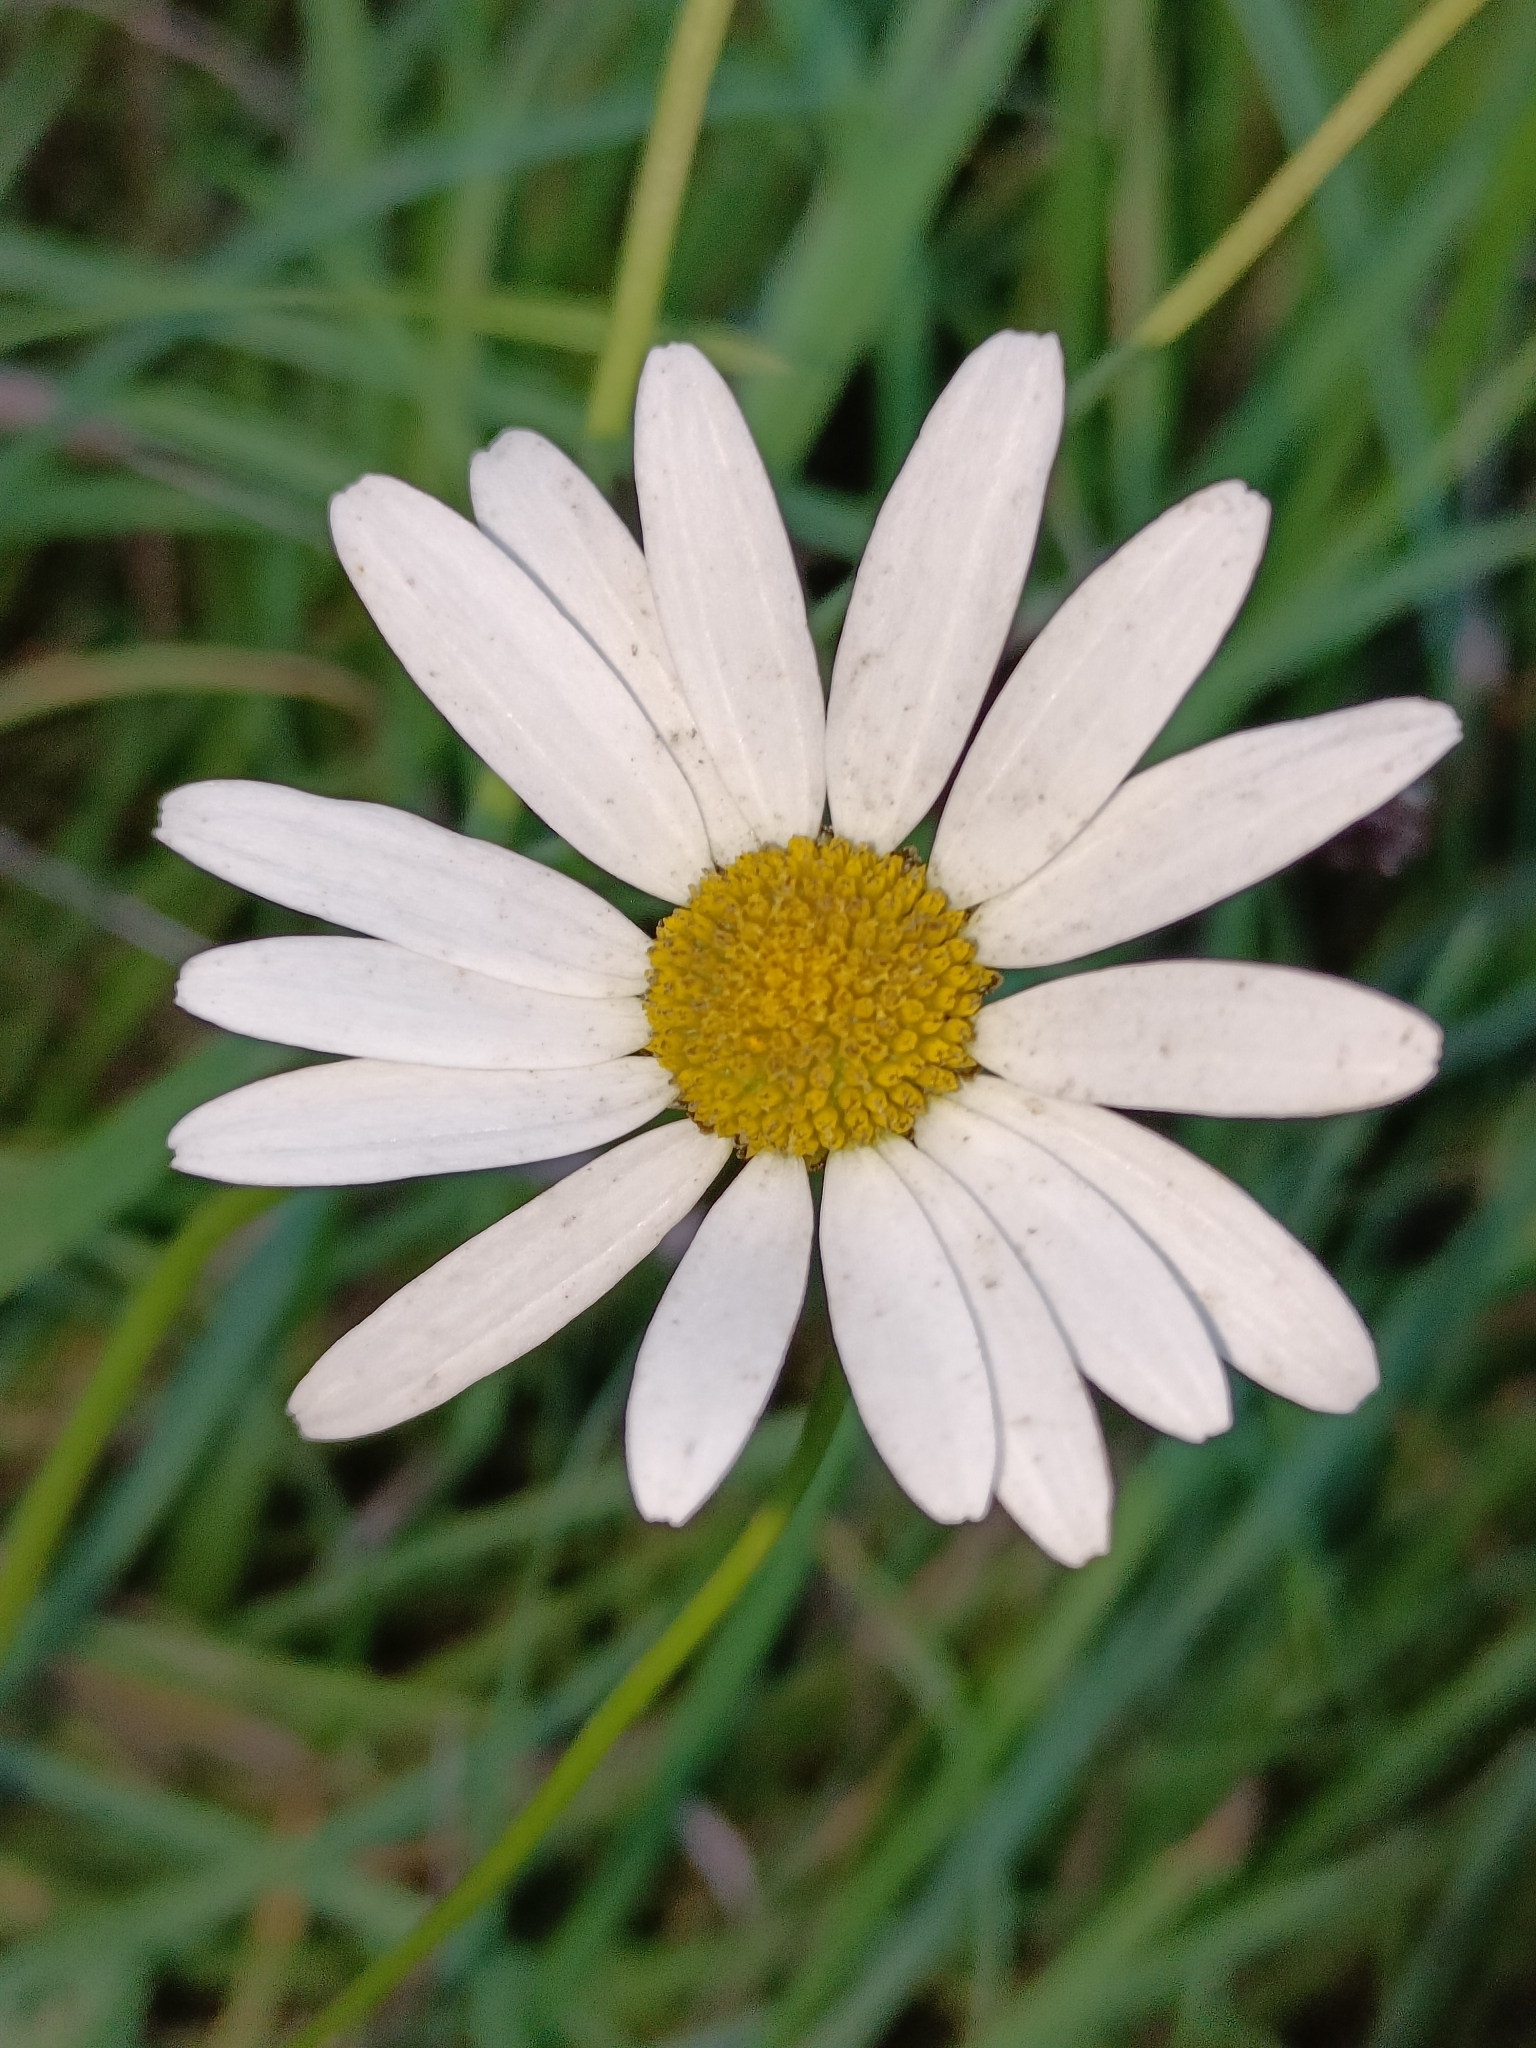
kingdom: Plantae
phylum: Tracheophyta
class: Magnoliopsida
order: Asterales
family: Asteraceae
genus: Leucanthemum
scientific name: Leucanthemum vulgare
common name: Oxeye daisy
